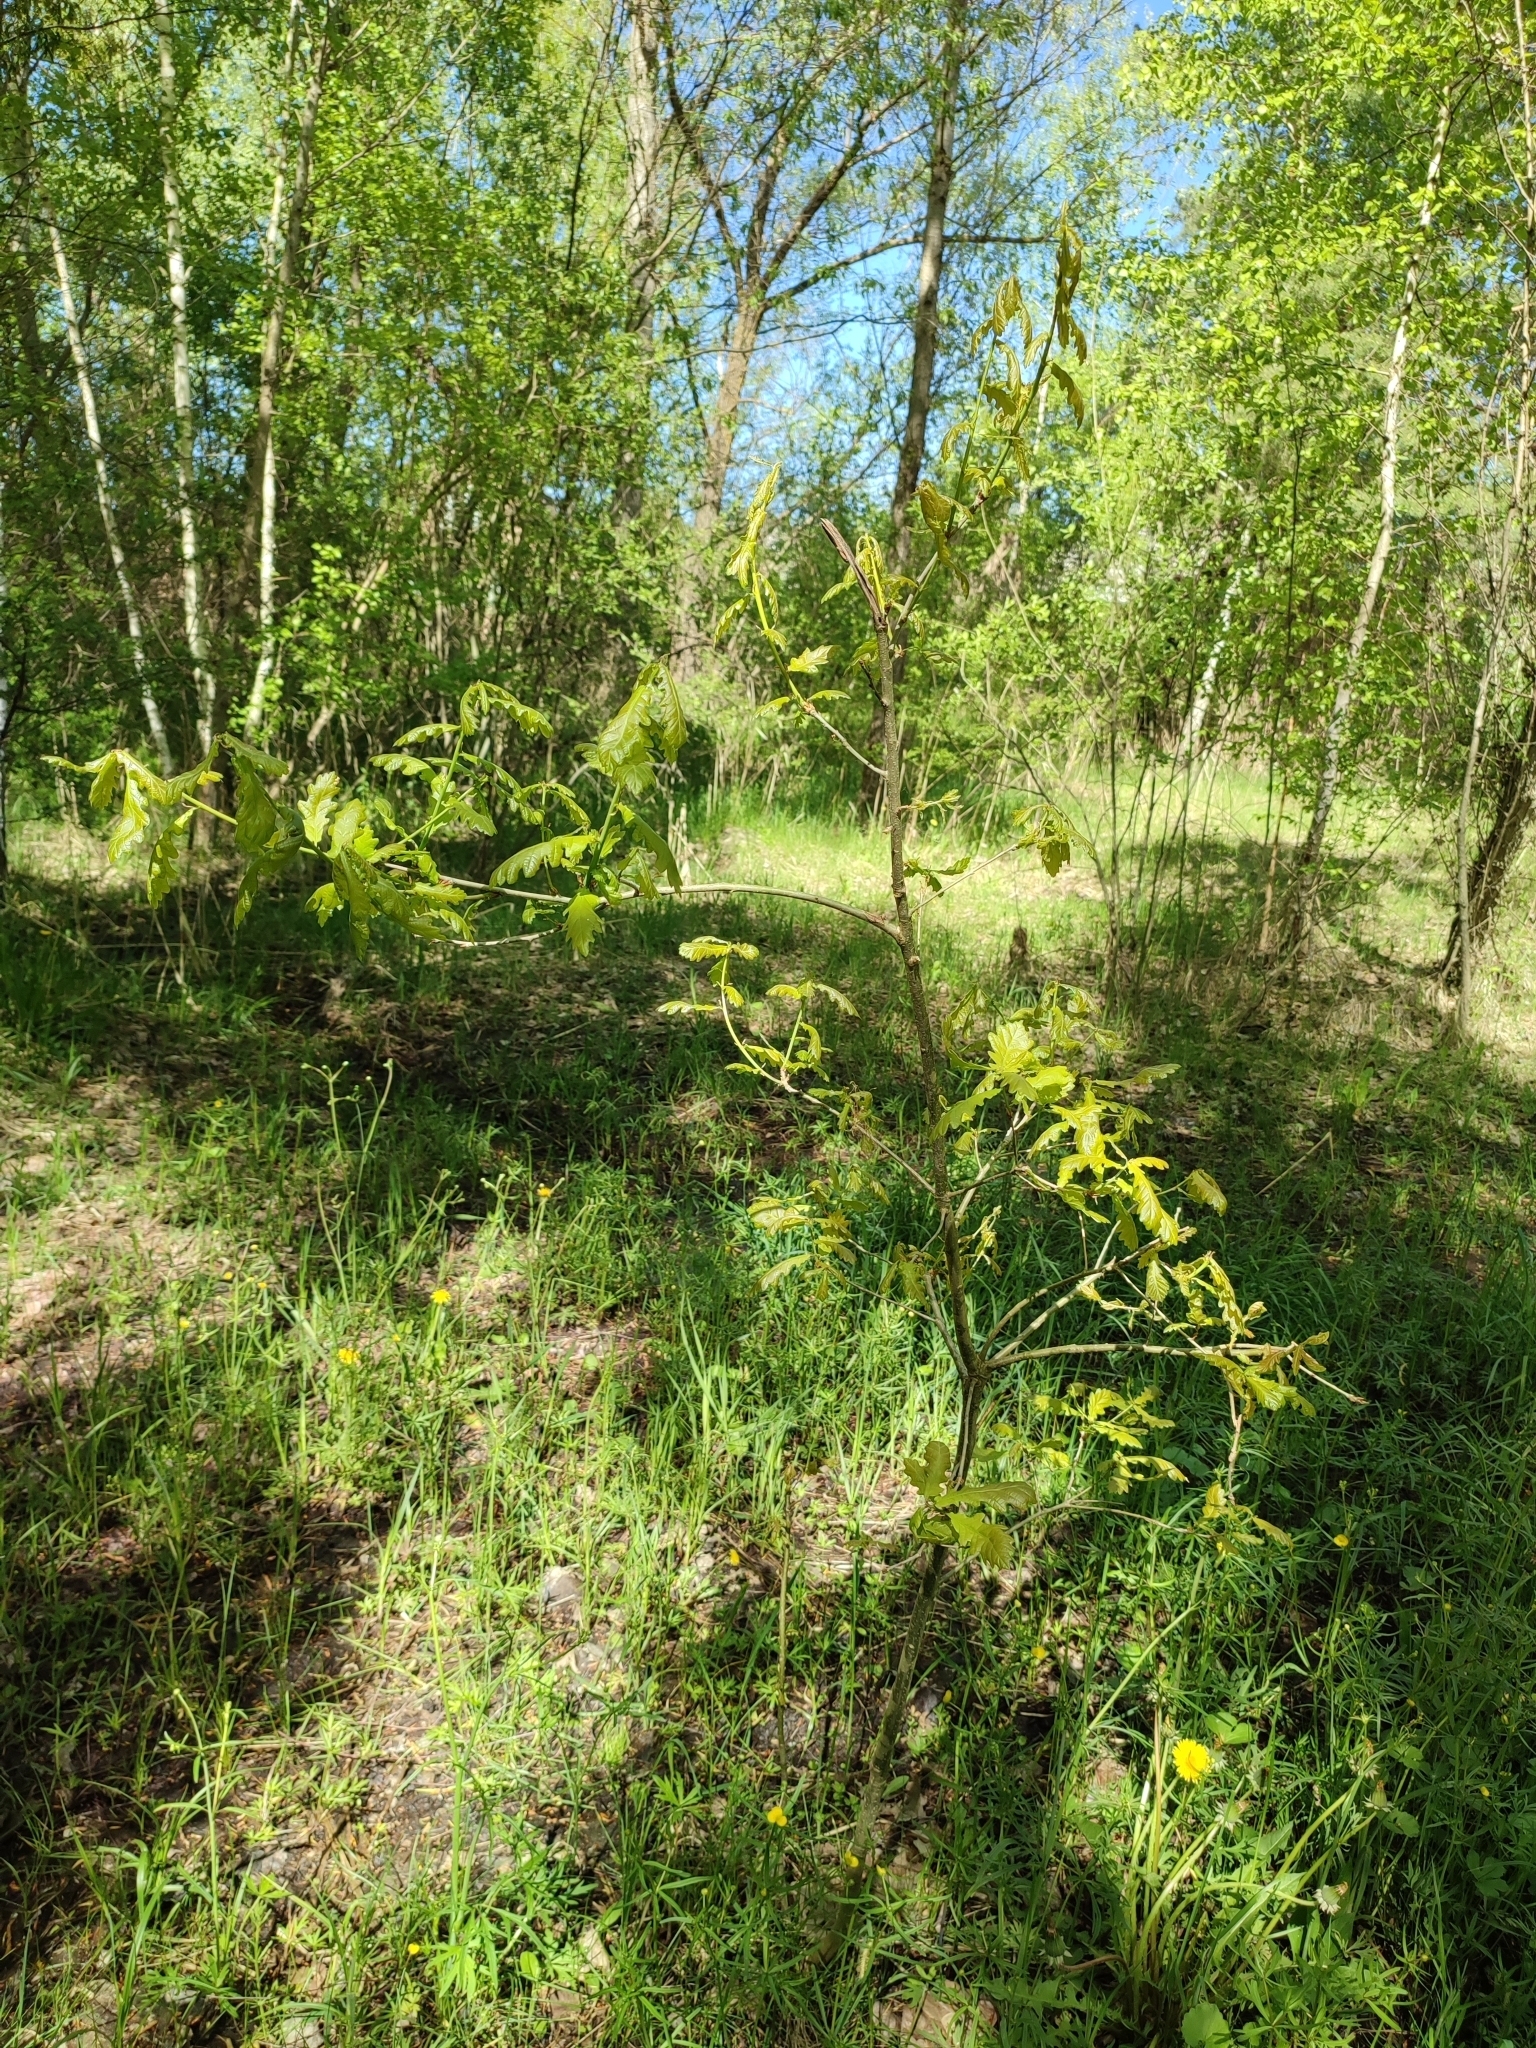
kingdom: Plantae
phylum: Tracheophyta
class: Magnoliopsida
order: Fagales
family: Fagaceae
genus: Quercus
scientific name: Quercus robur
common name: Pedunculate oak
